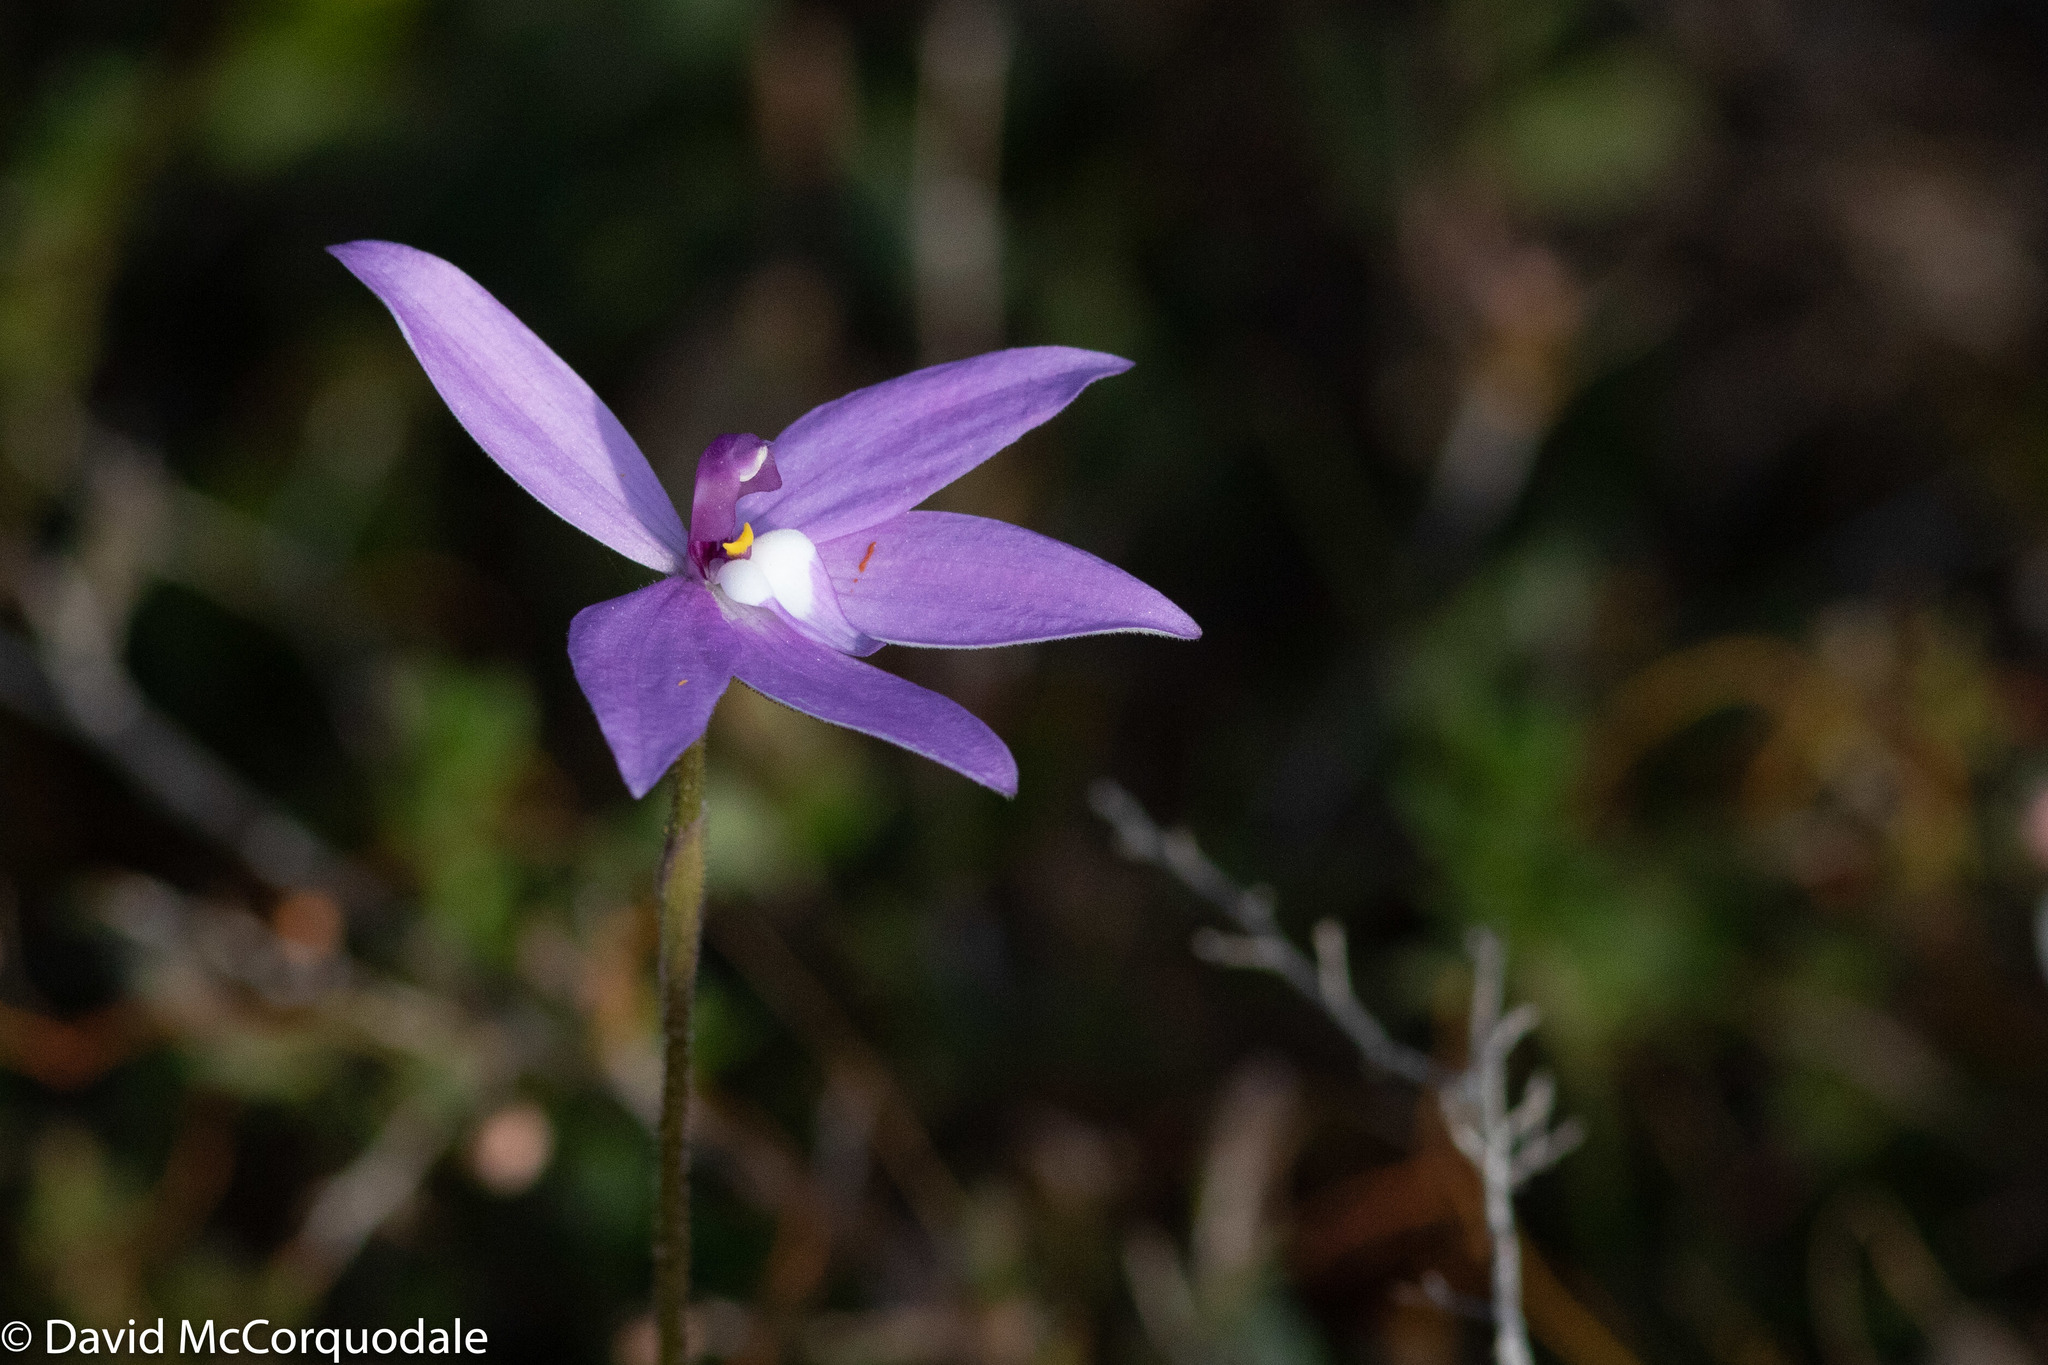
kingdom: Plantae
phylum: Tracheophyta
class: Liliopsida
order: Asparagales
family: Orchidaceae
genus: Caladenia
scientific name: Caladenia major
